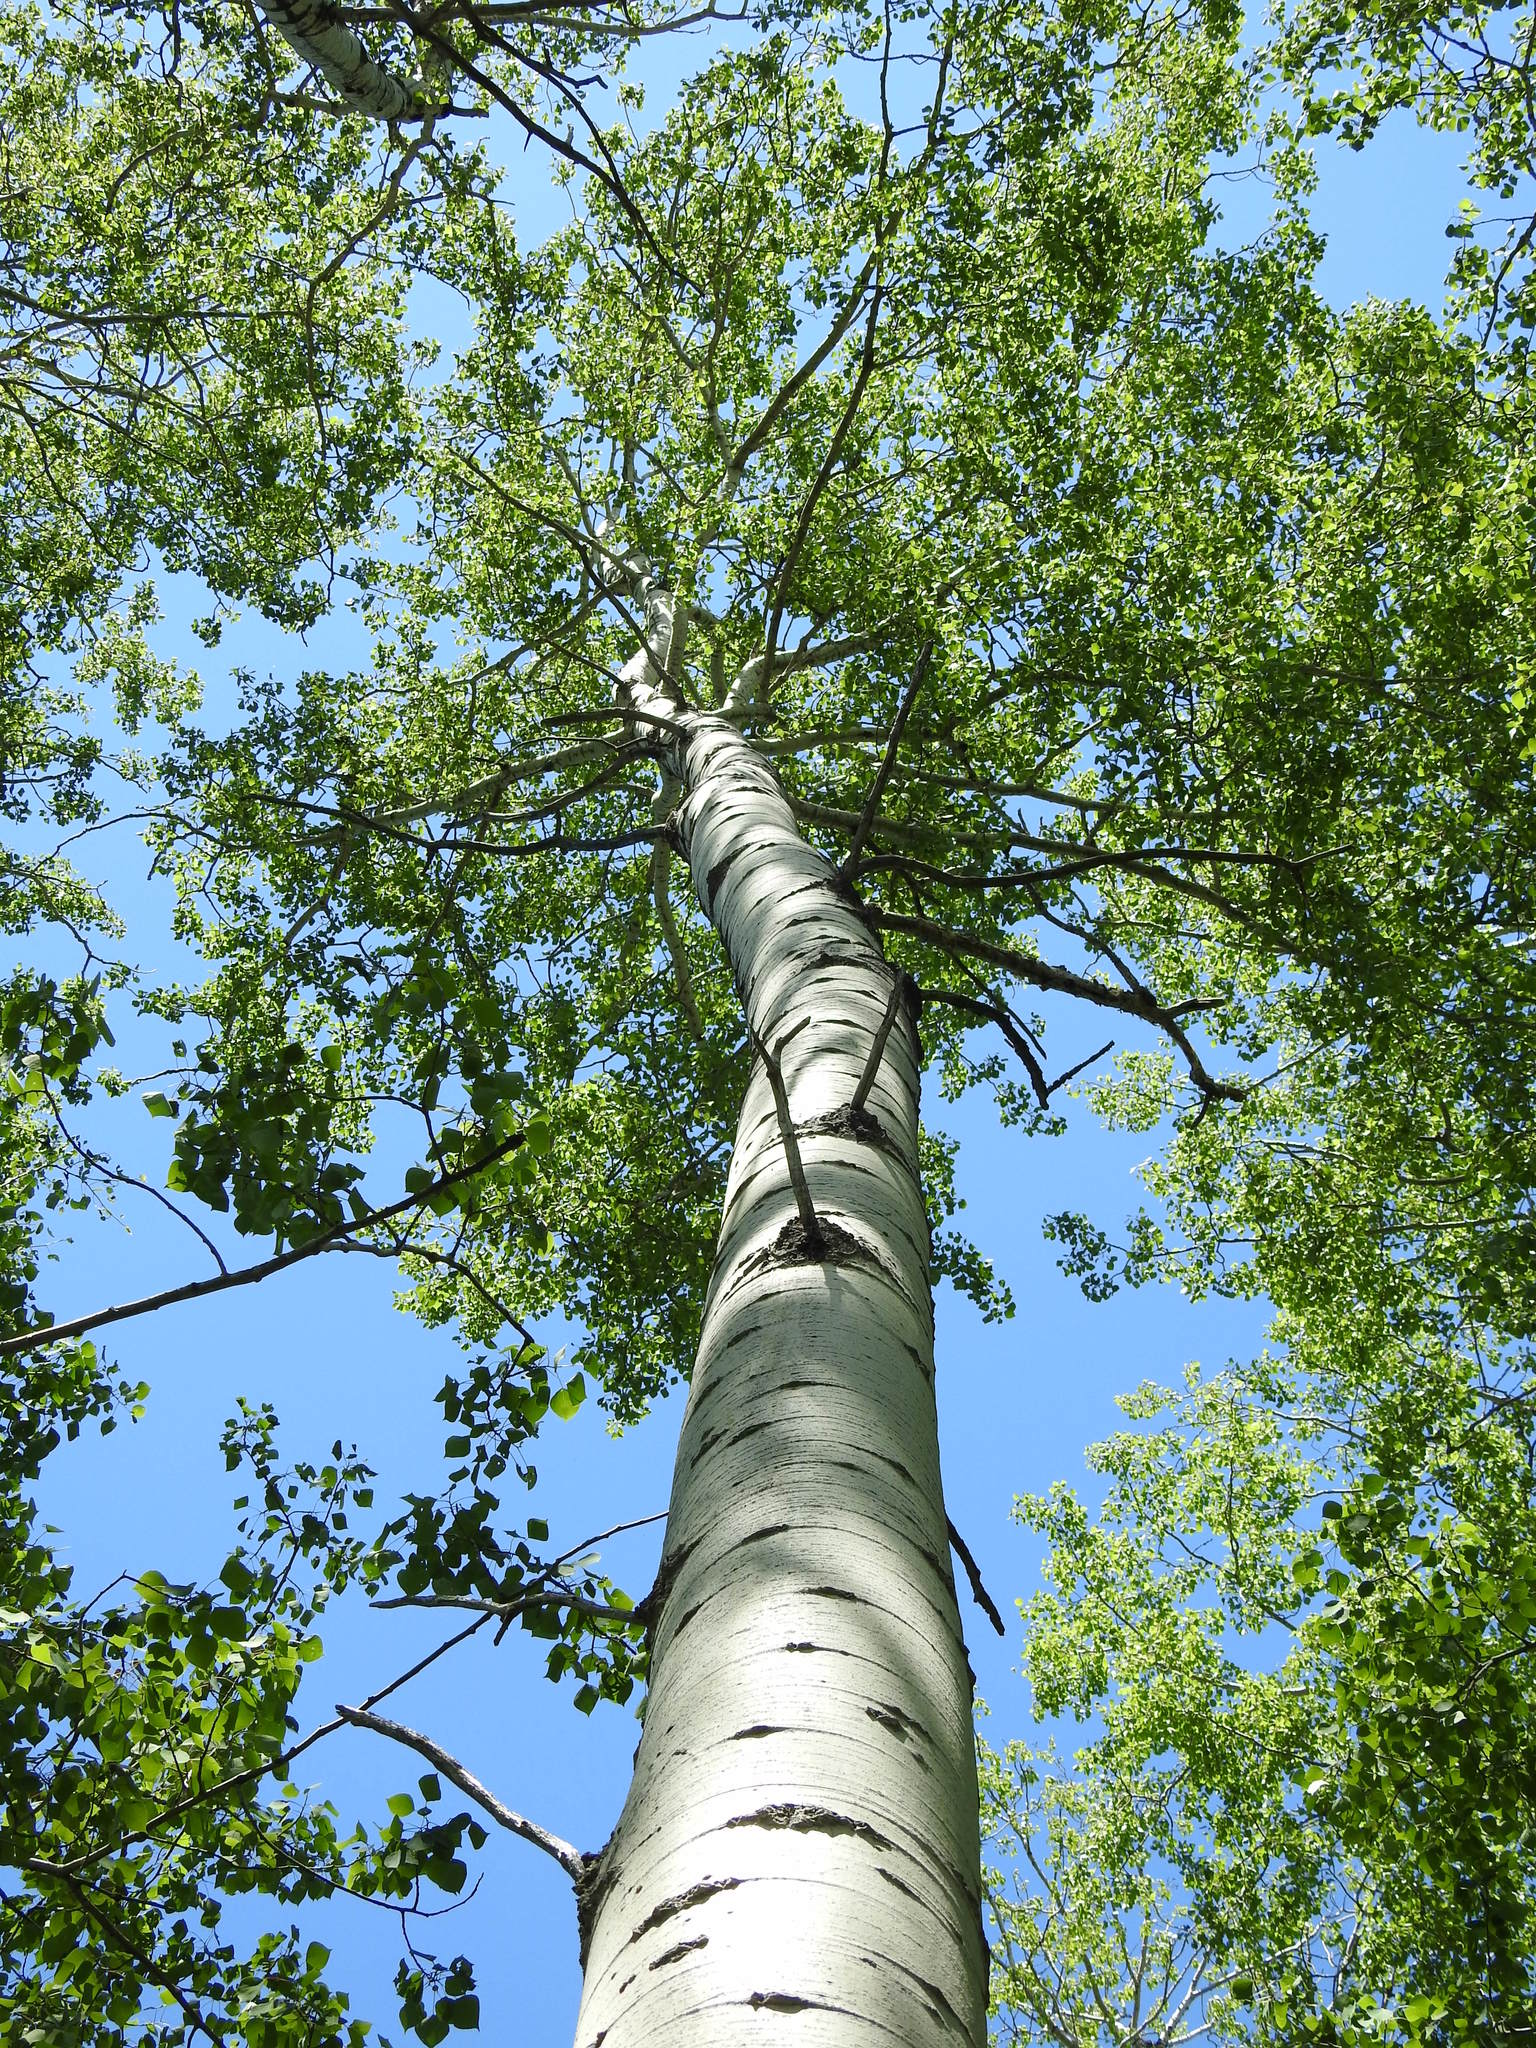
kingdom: Plantae
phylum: Tracheophyta
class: Magnoliopsida
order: Malpighiales
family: Salicaceae
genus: Populus
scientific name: Populus tremuloides
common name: Quaking aspen
